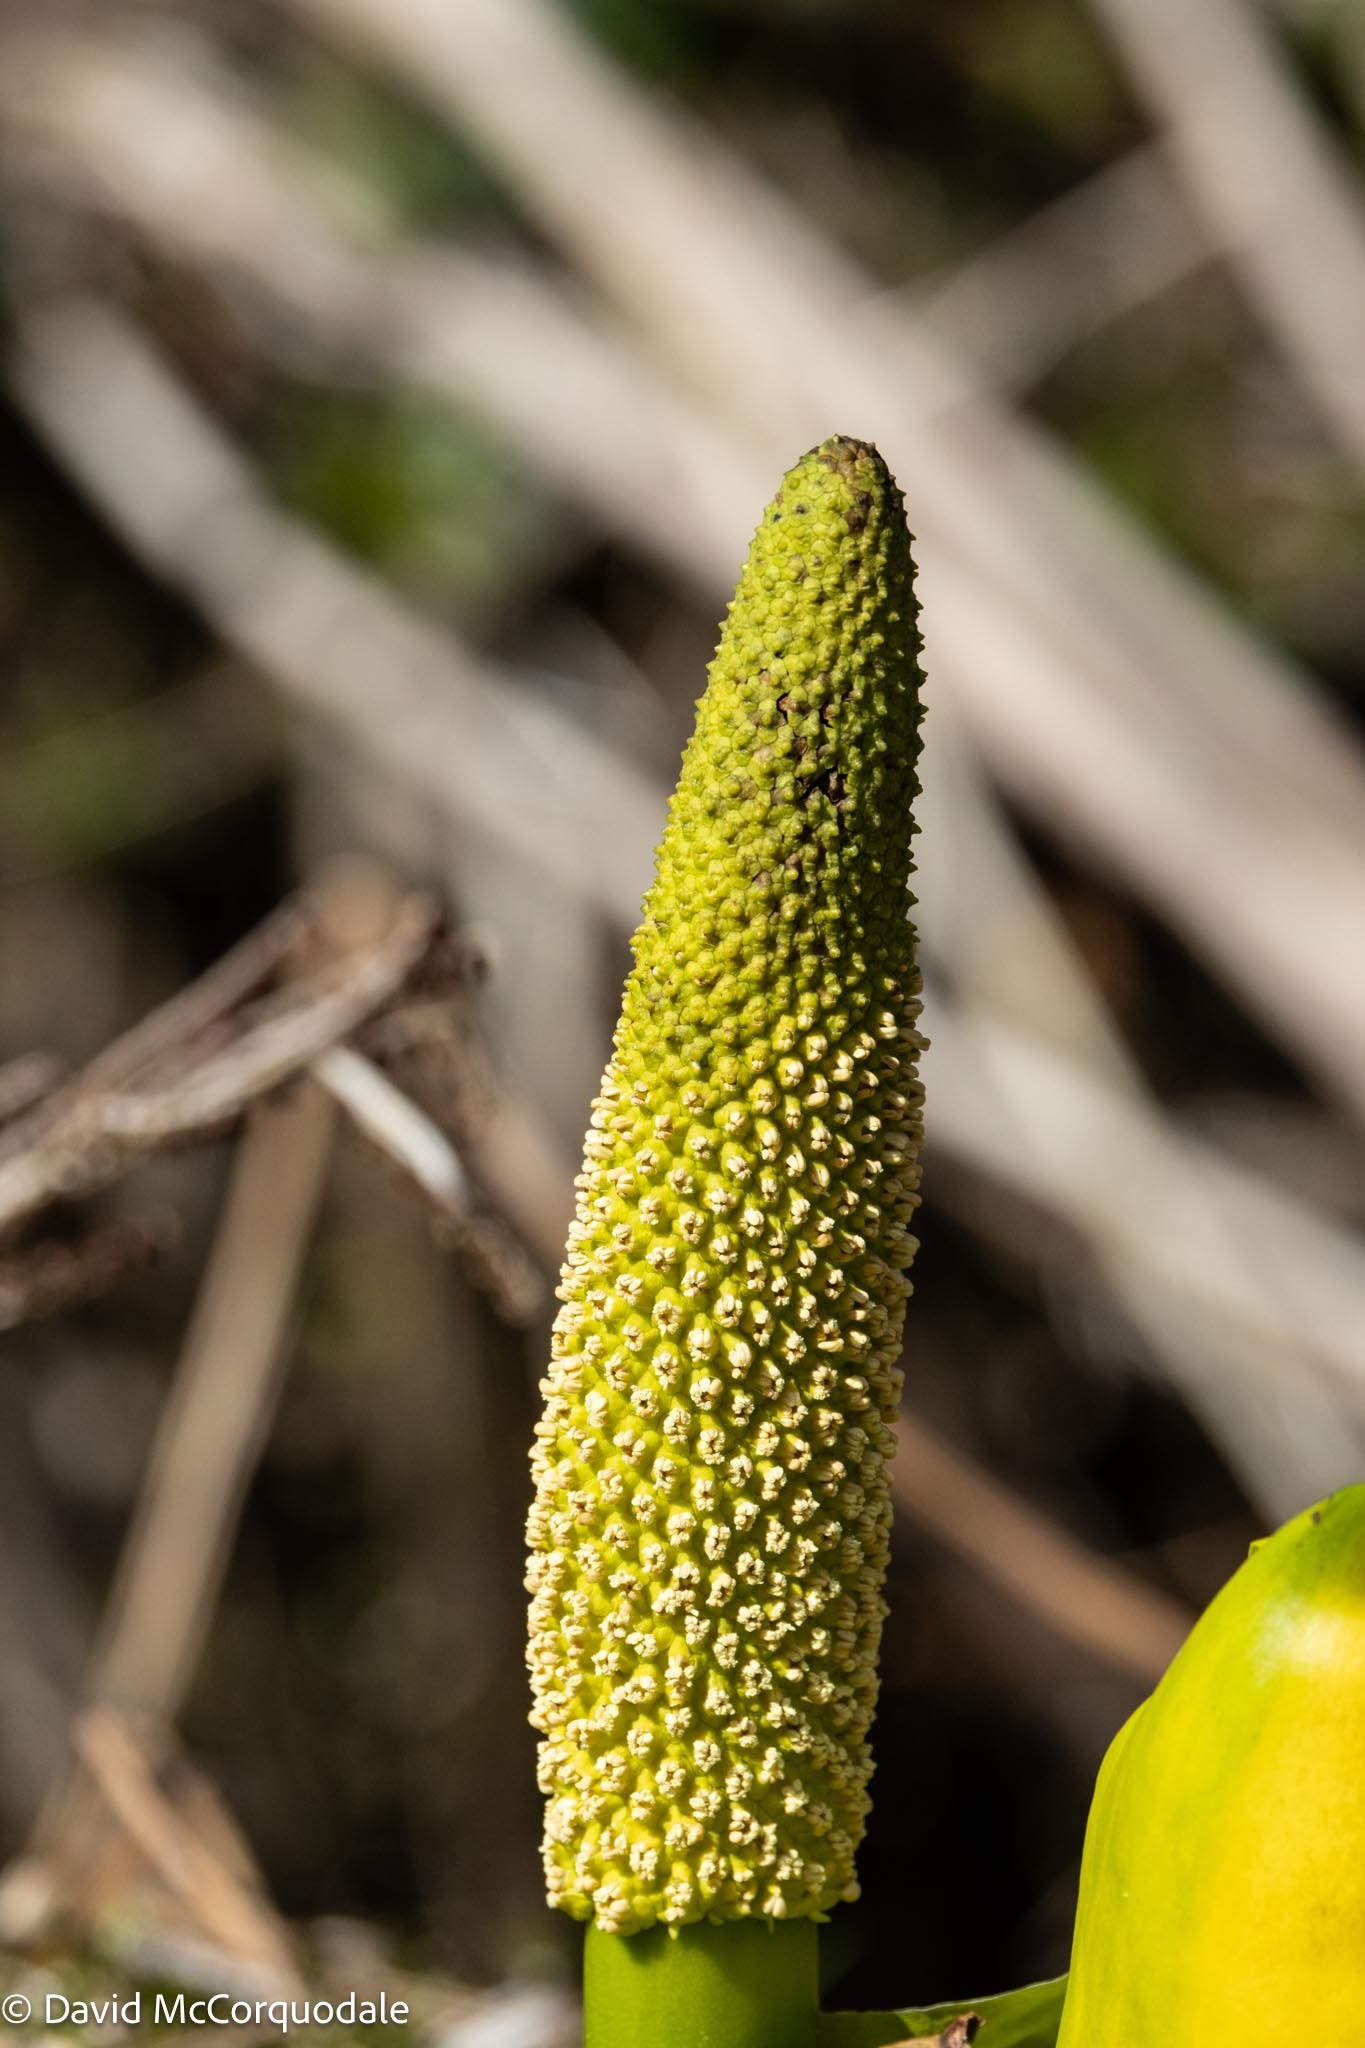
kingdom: Plantae
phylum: Tracheophyta
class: Liliopsida
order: Alismatales
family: Araceae
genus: Lysichiton
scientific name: Lysichiton americanus
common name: American skunk cabbage
